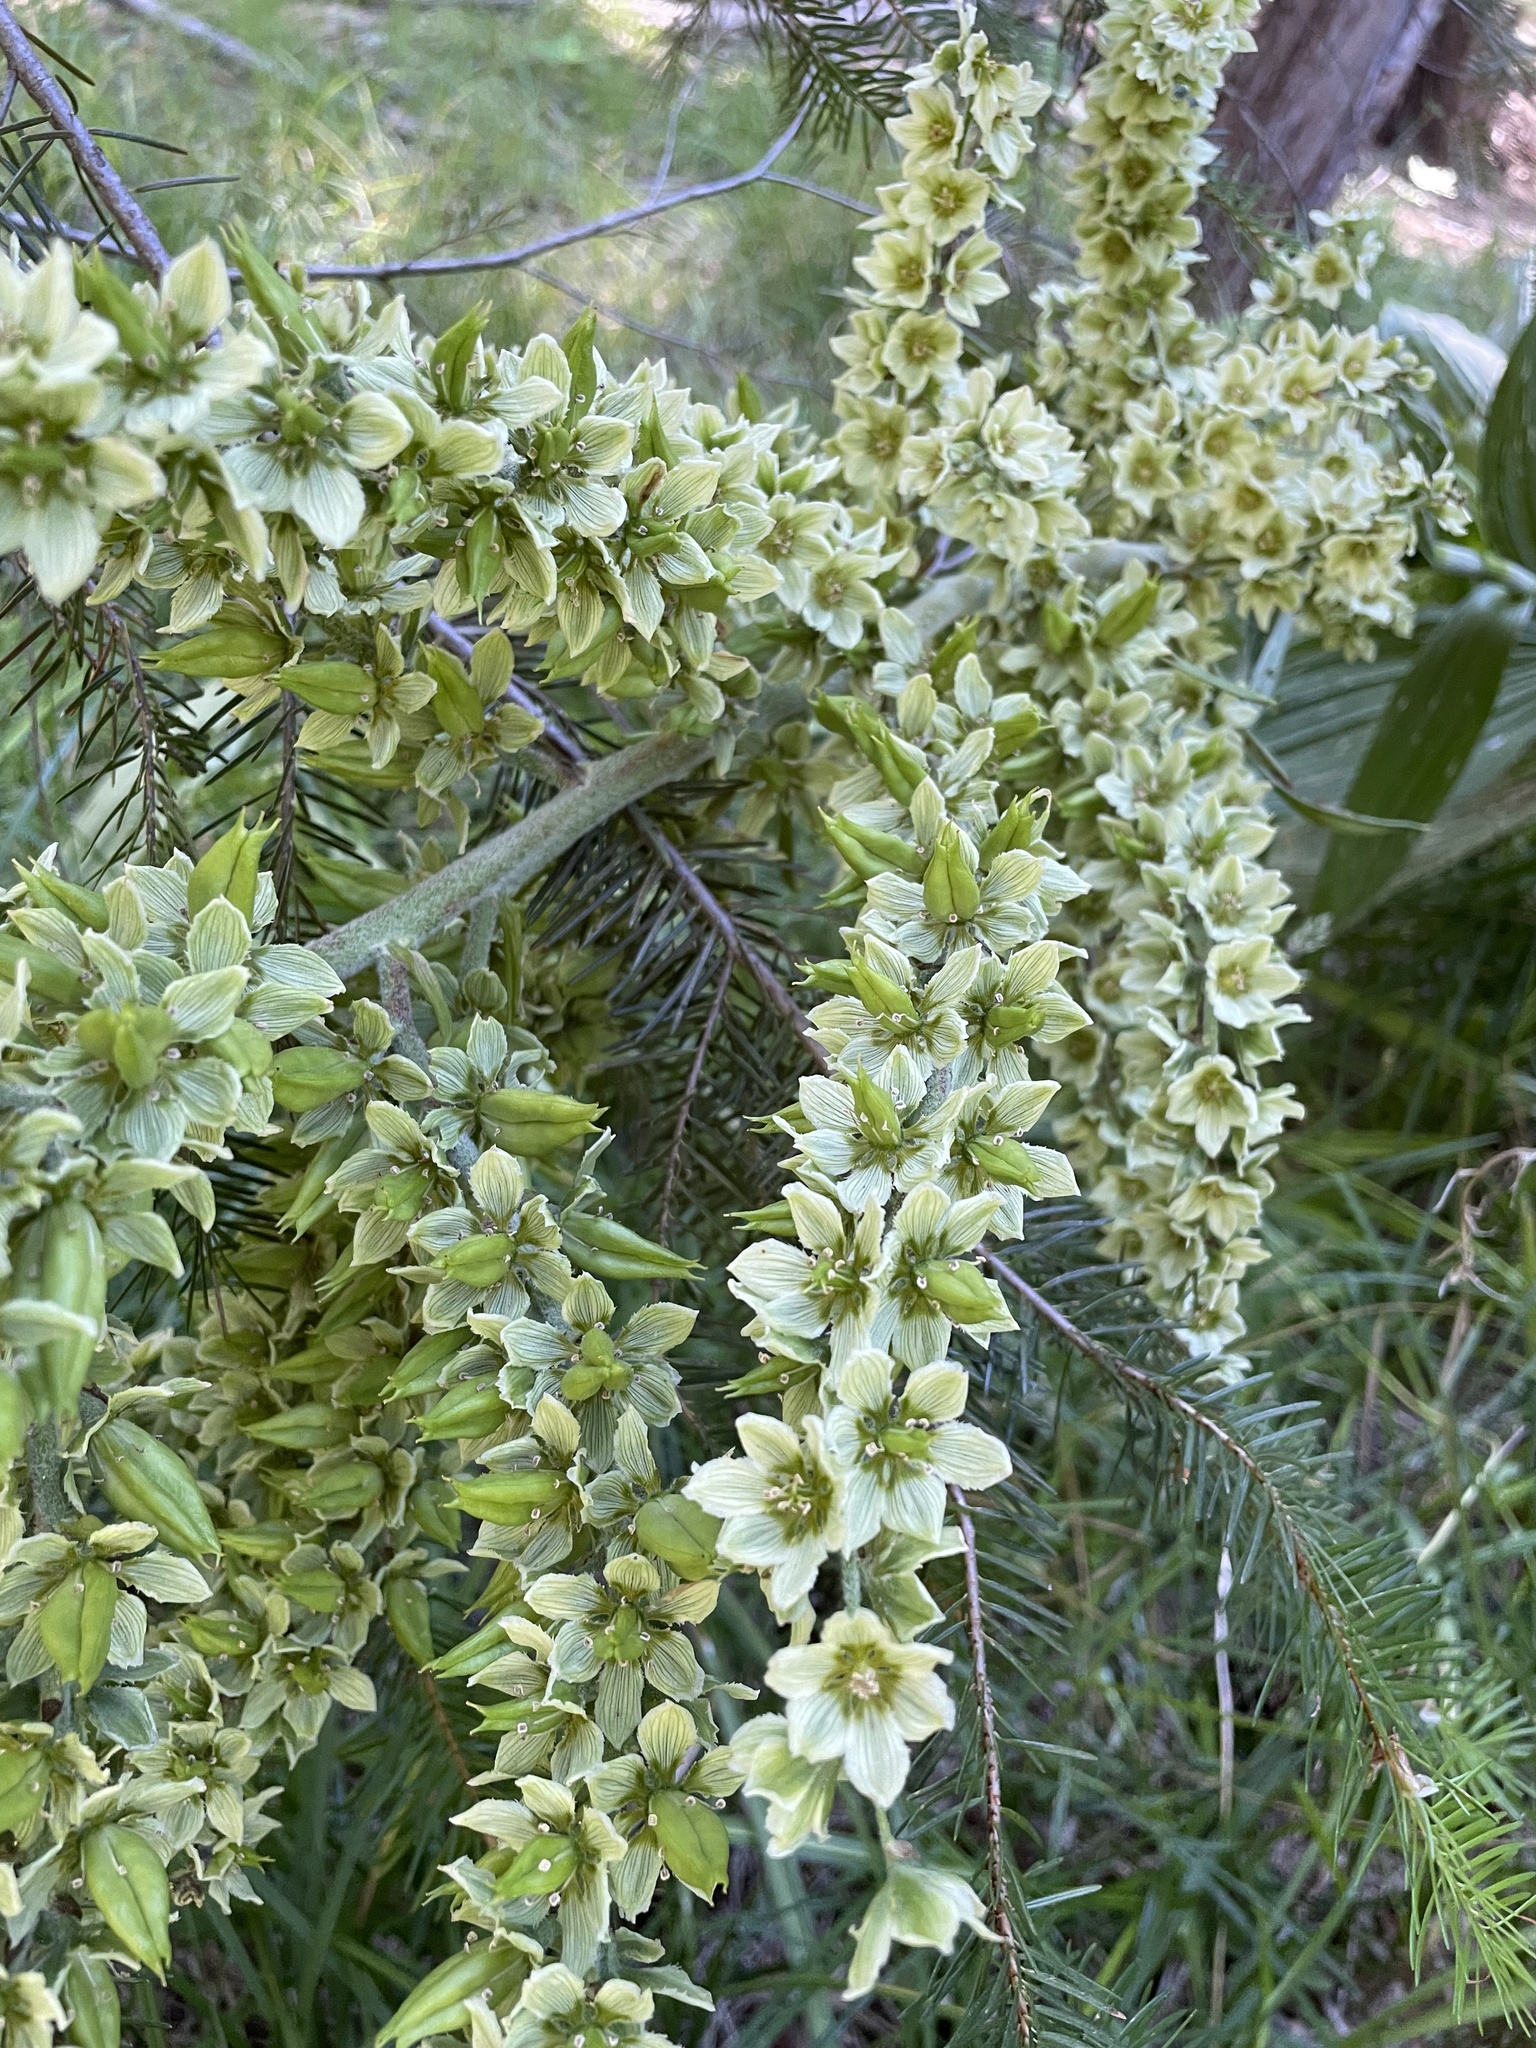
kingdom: Plantae
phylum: Tracheophyta
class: Liliopsida
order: Liliales
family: Melanthiaceae
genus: Veratrum
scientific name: Veratrum californicum
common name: California veratrum
